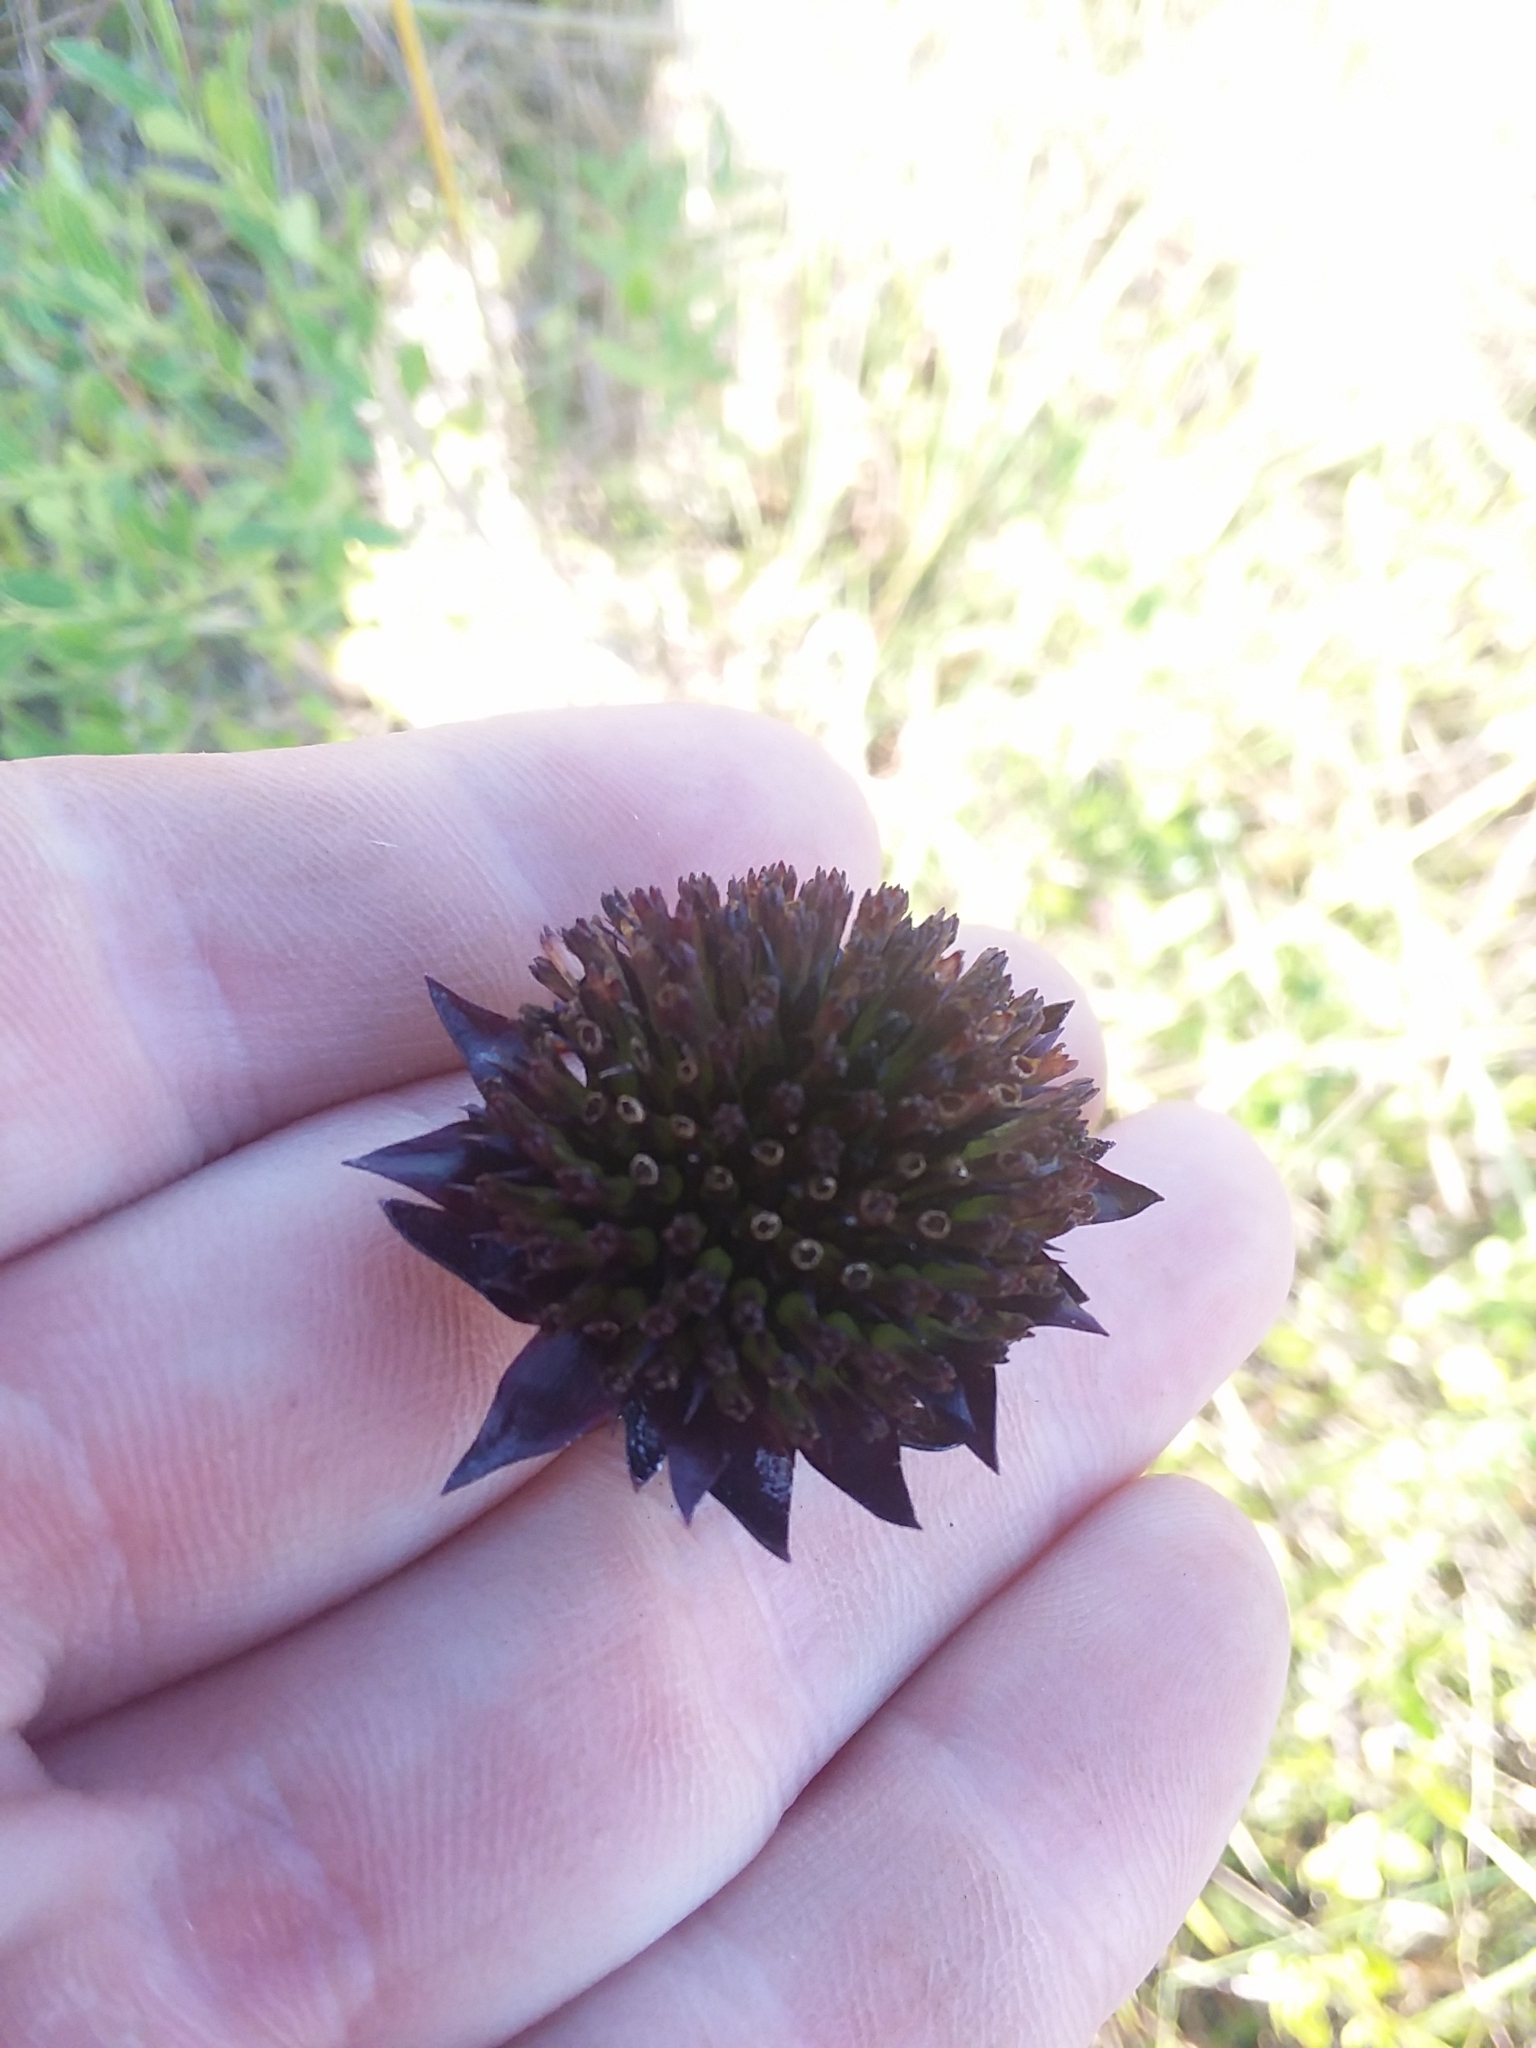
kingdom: Plantae
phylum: Tracheophyta
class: Magnoliopsida
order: Asterales
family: Asteraceae
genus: Helianthus
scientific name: Helianthus radula
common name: Pineland sunflower
